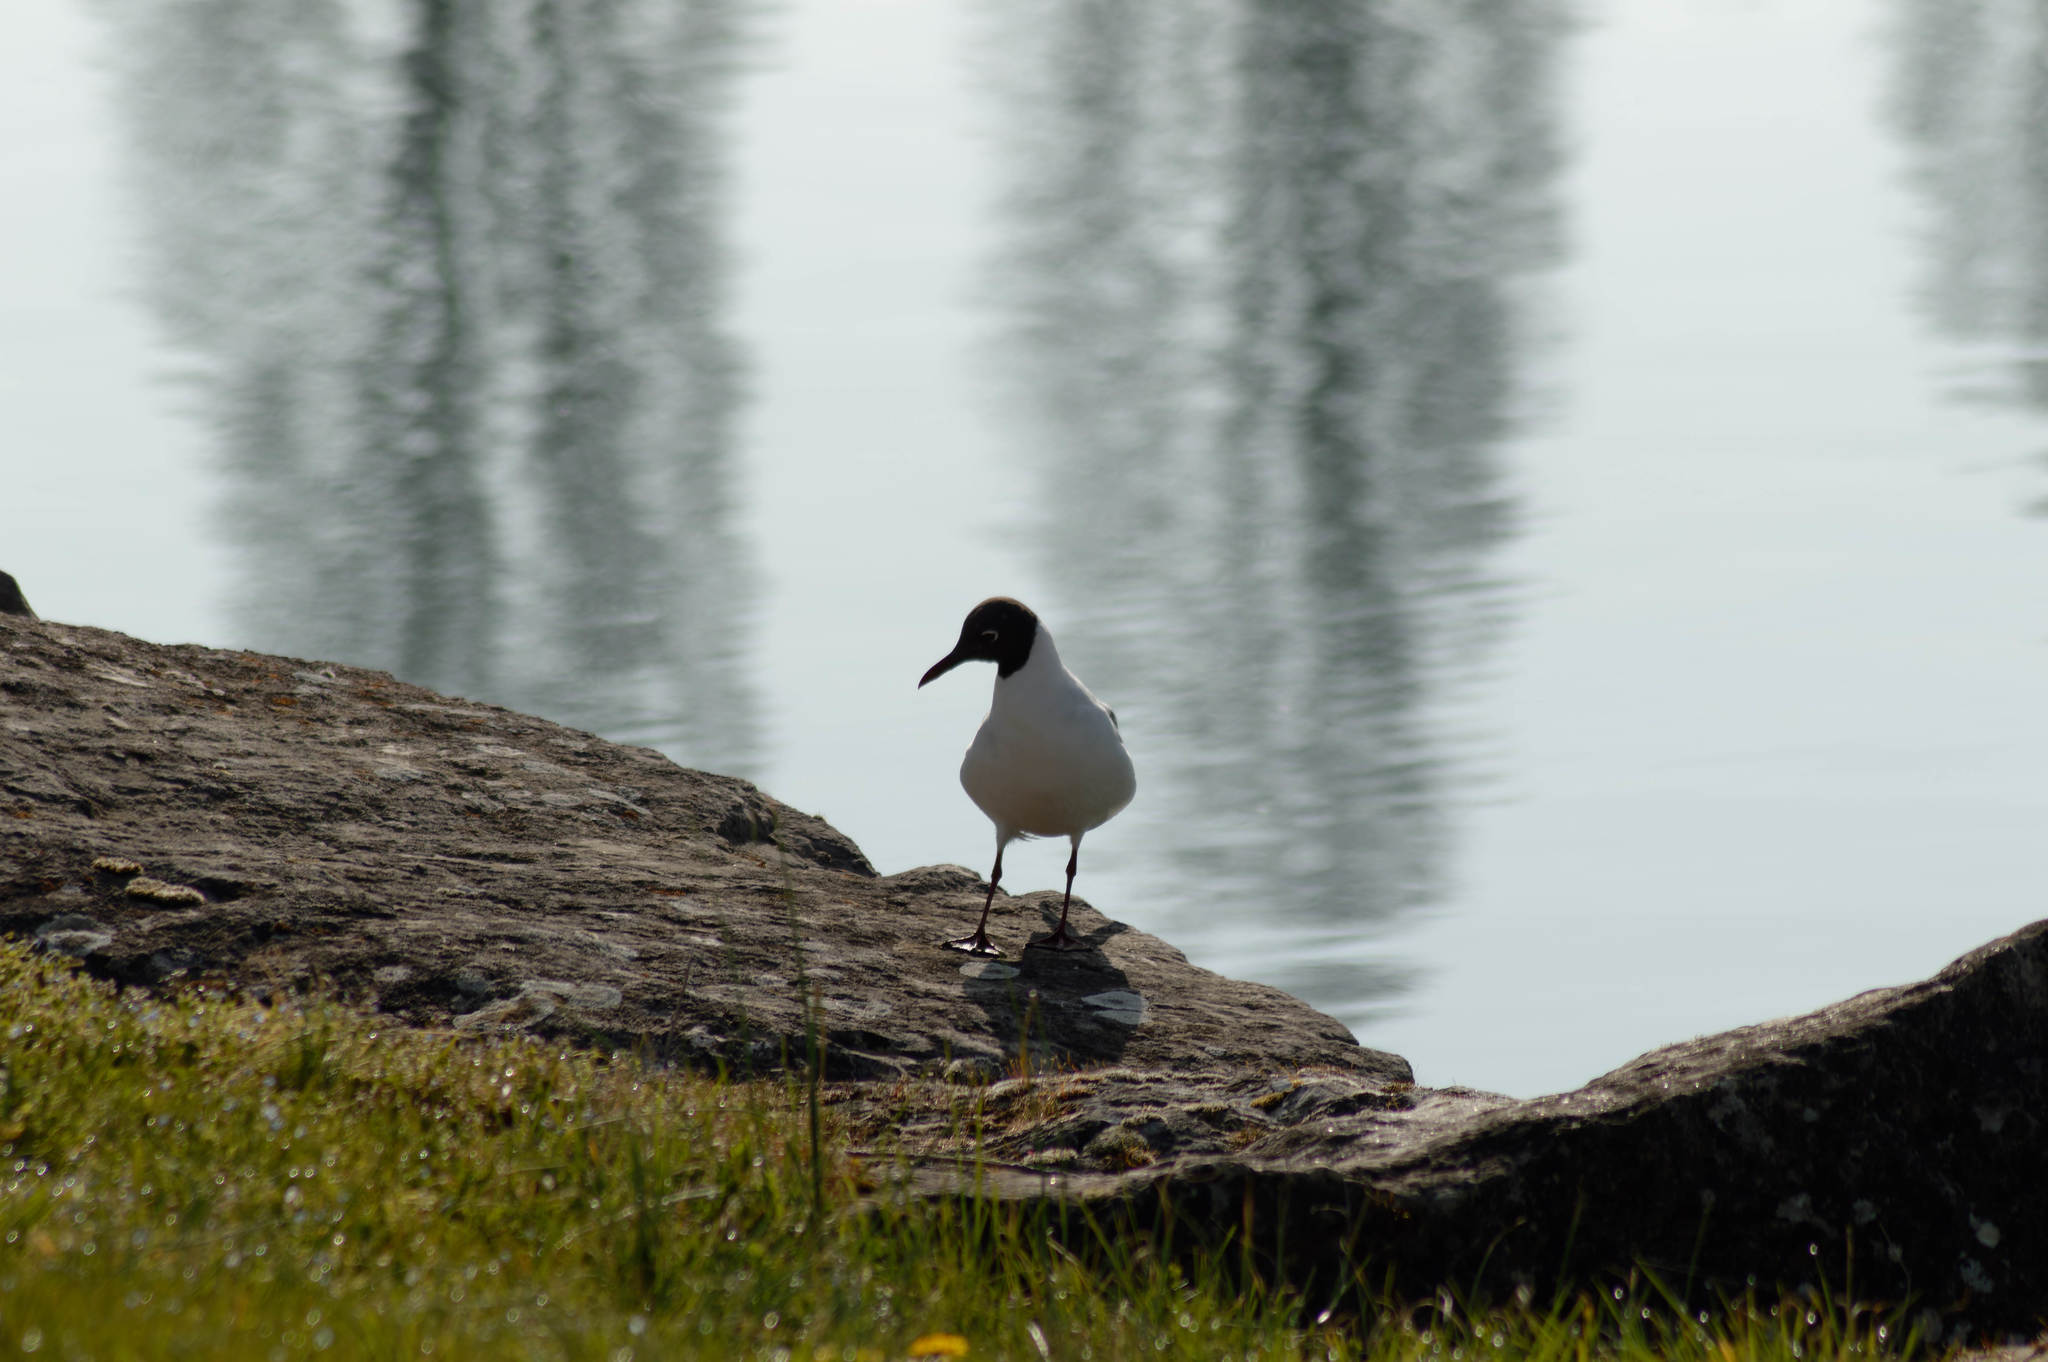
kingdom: Animalia
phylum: Chordata
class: Aves
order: Charadriiformes
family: Laridae
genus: Chroicocephalus
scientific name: Chroicocephalus ridibundus
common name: Black-headed gull
